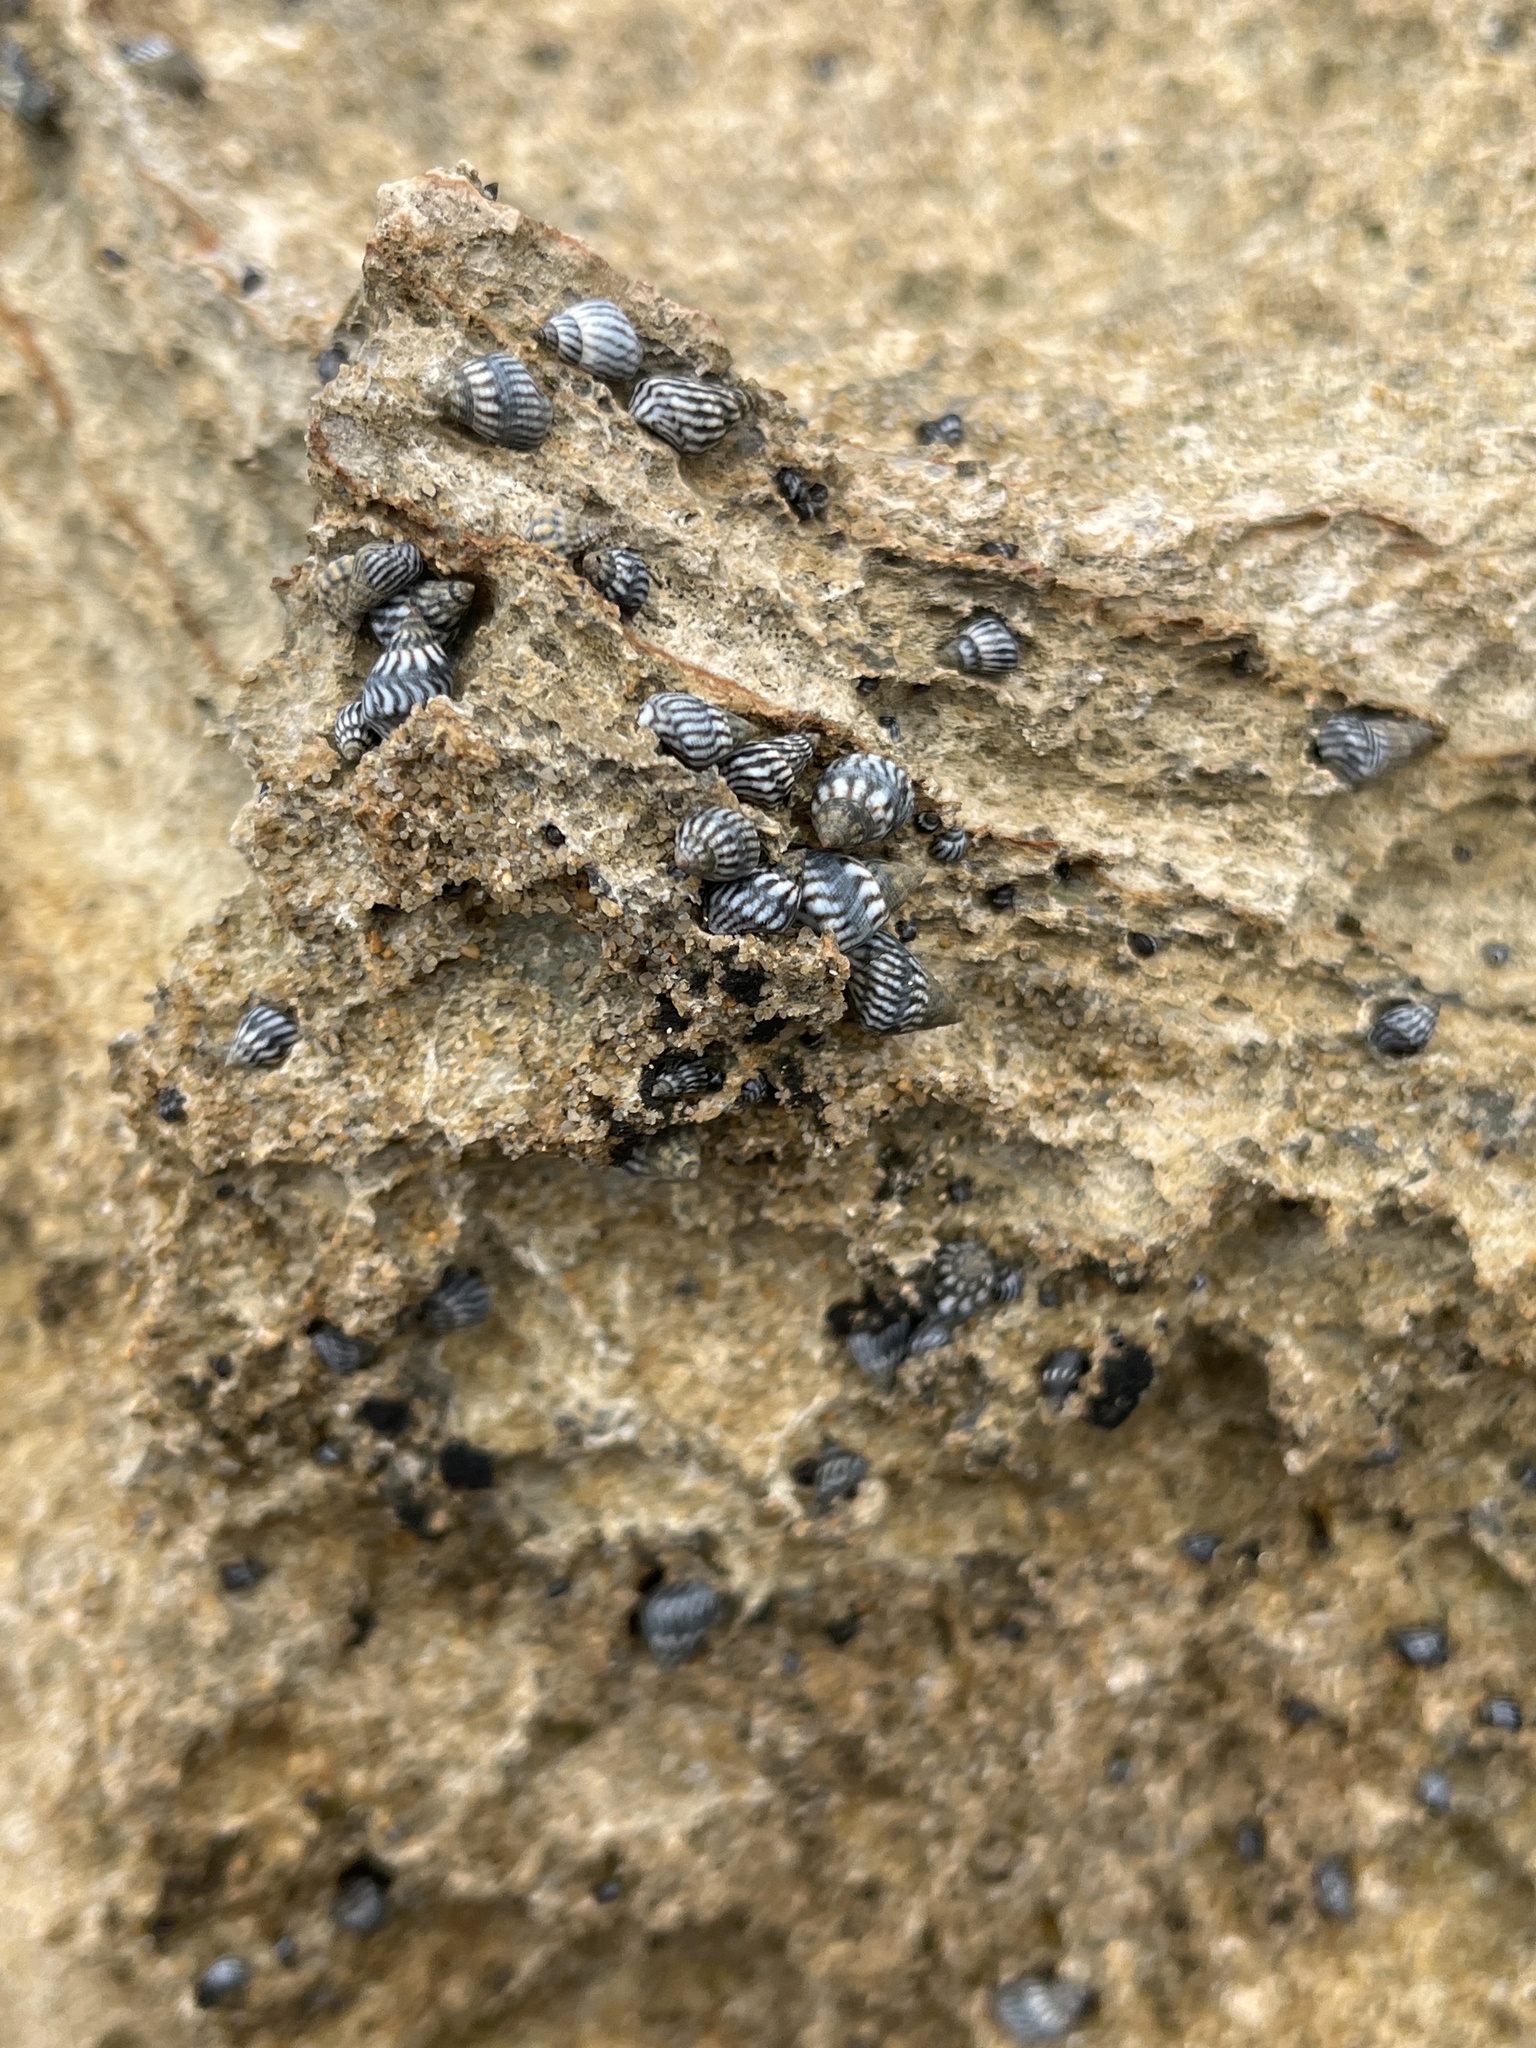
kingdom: Animalia
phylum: Mollusca
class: Gastropoda
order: Littorinimorpha
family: Littorinidae
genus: Echinolittorina
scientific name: Echinolittorina interrupta
